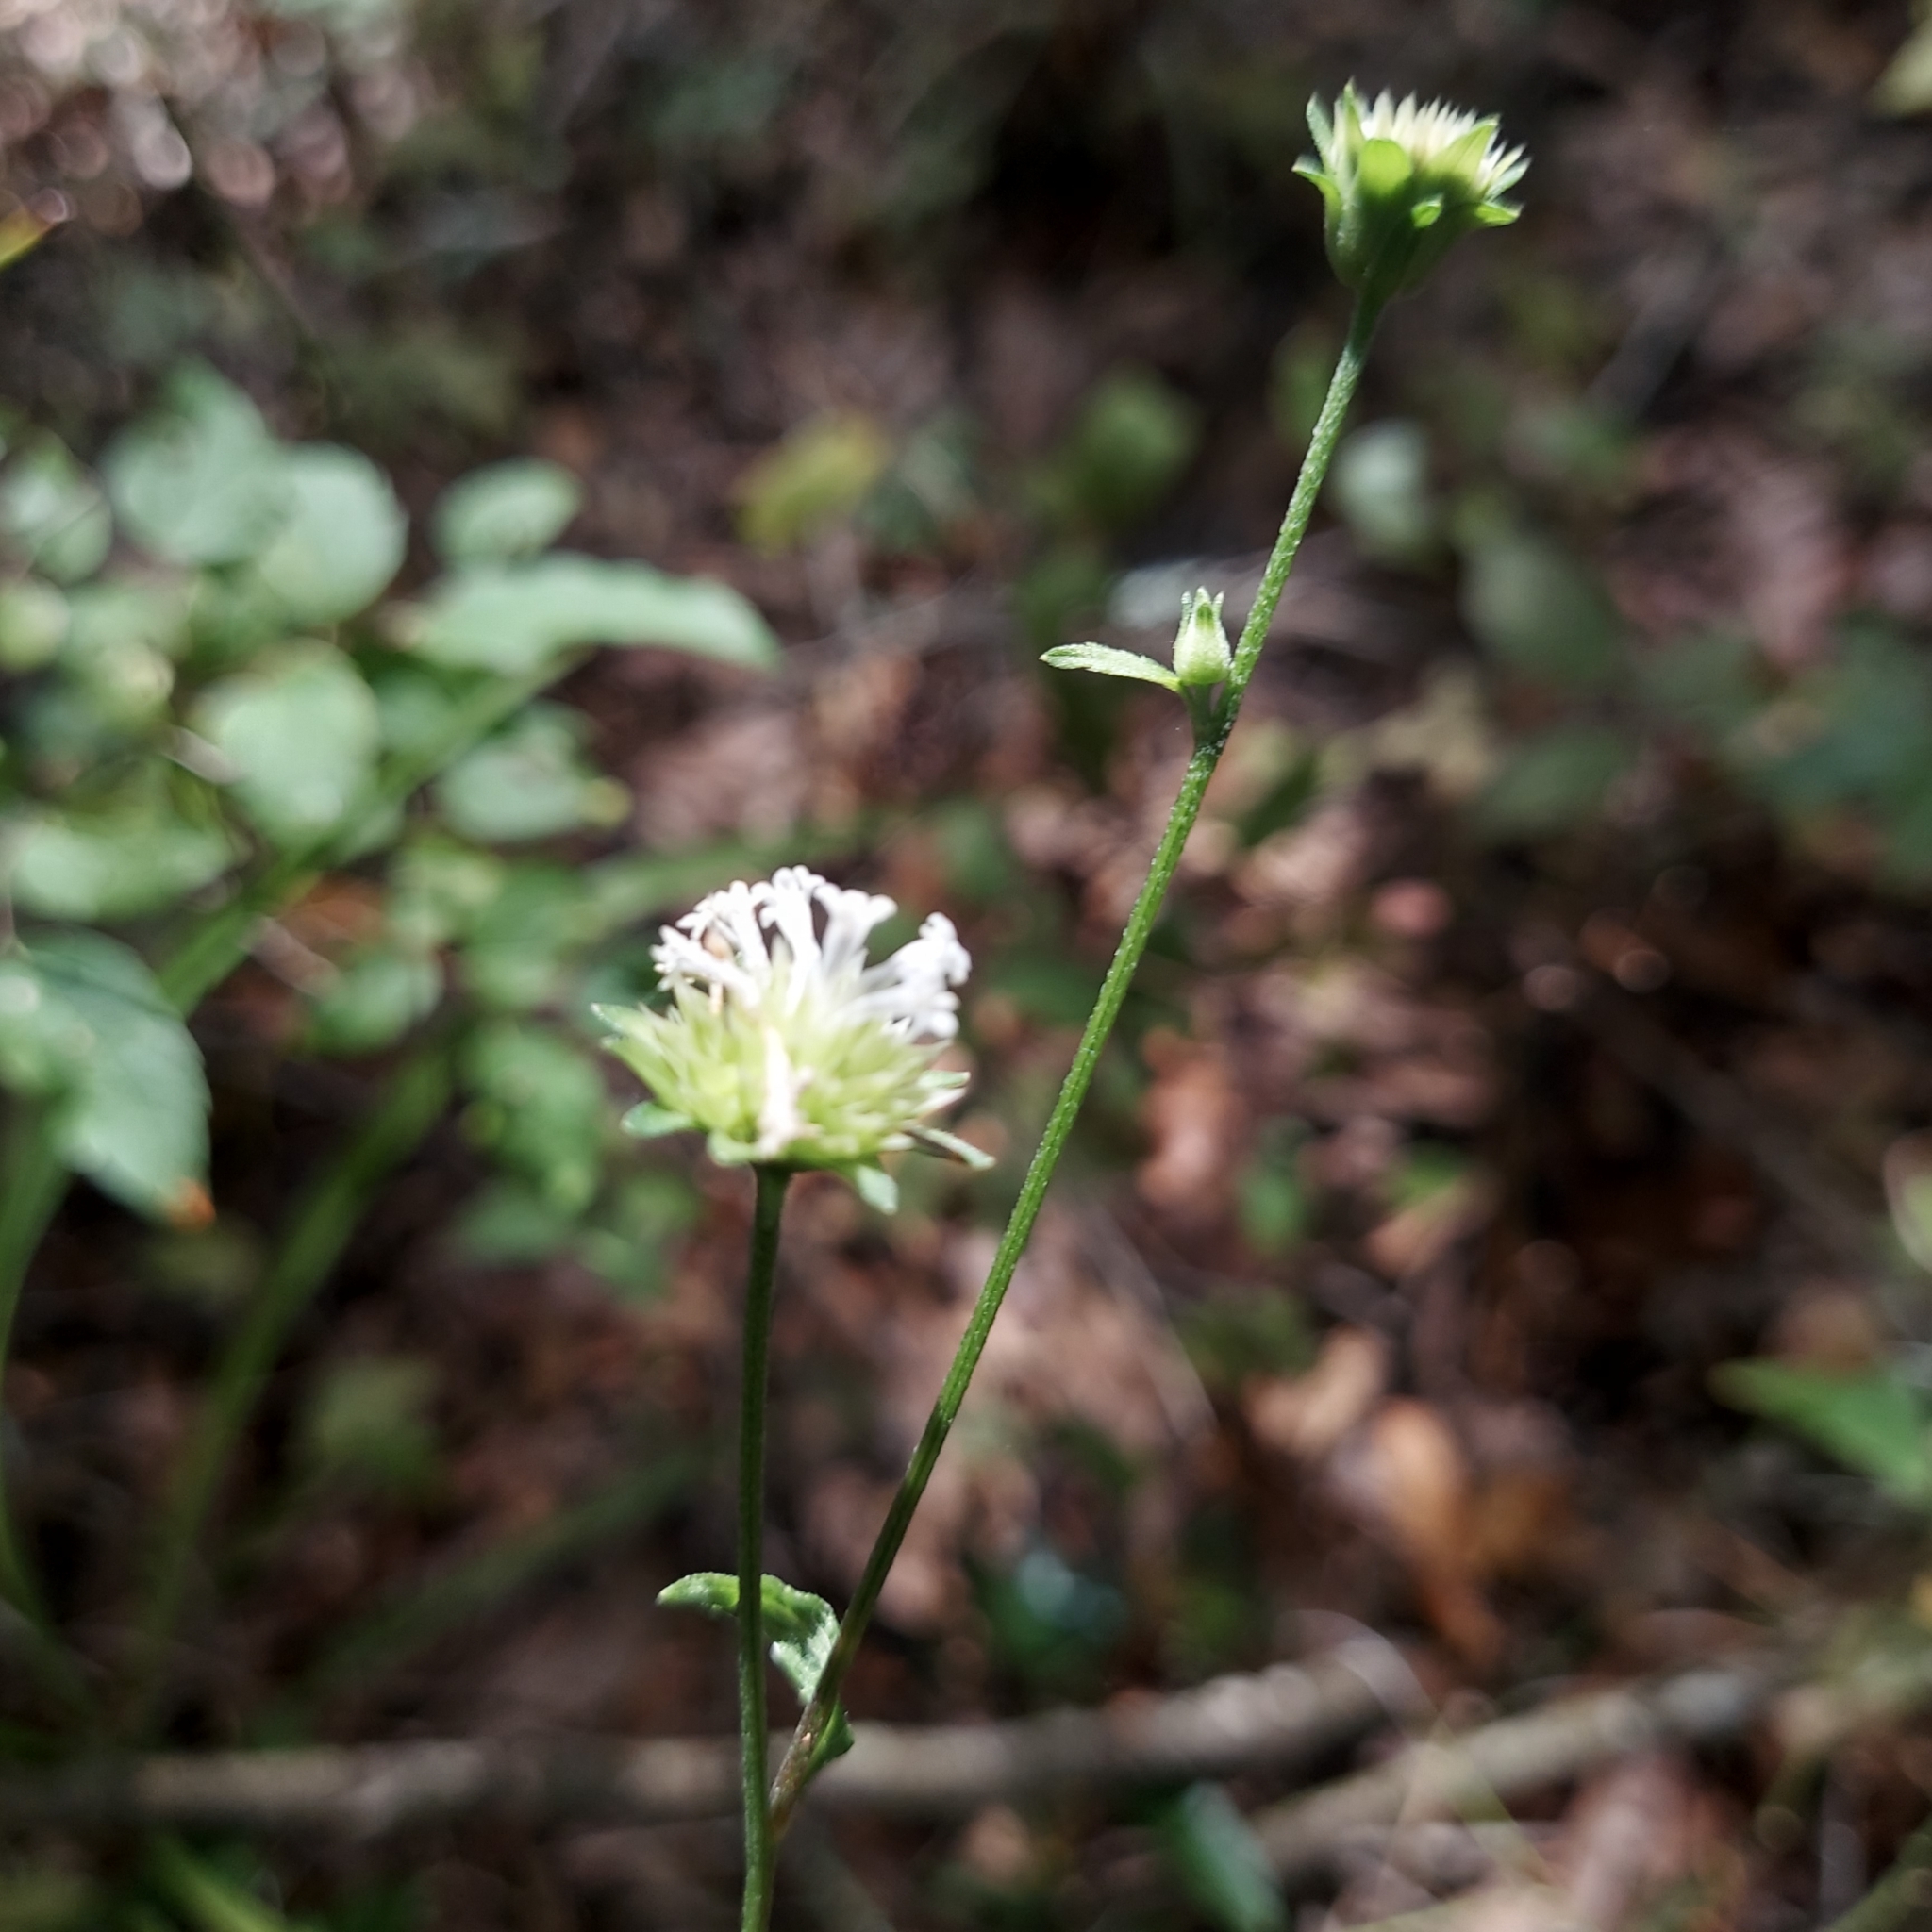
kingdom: Plantae
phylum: Tracheophyta
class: Magnoliopsida
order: Asterales
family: Asteraceae
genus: Melanthera
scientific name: Melanthera nivea
